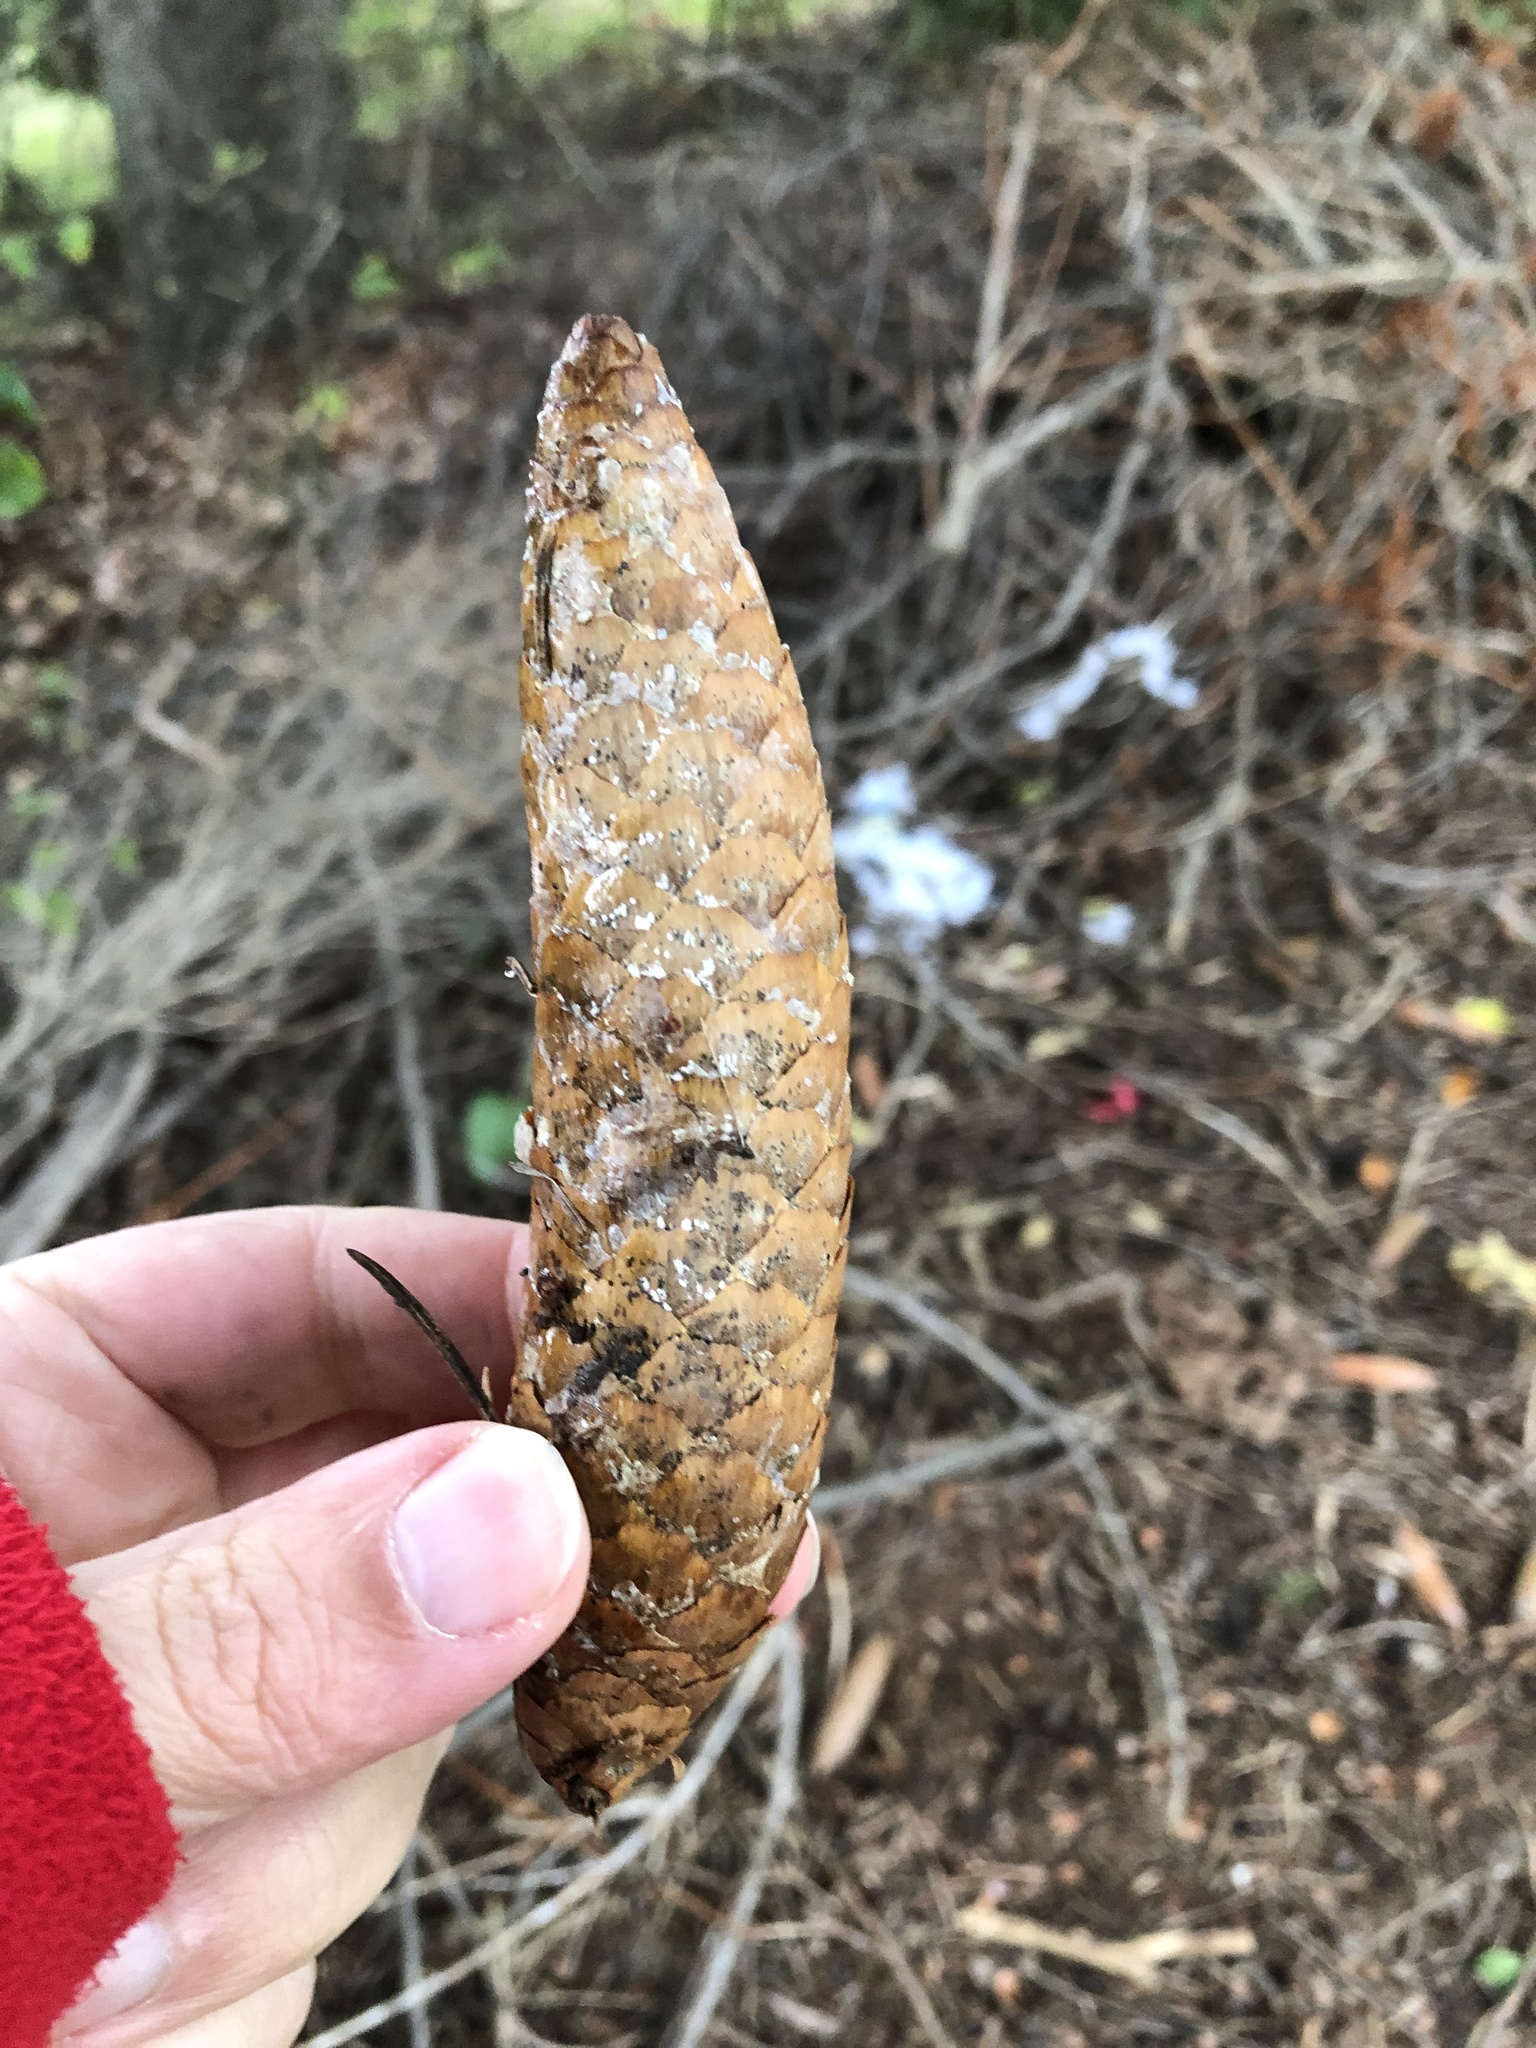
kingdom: Plantae
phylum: Tracheophyta
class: Pinopsida
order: Pinales
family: Pinaceae
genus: Picea
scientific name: Picea abies
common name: Norway spruce
